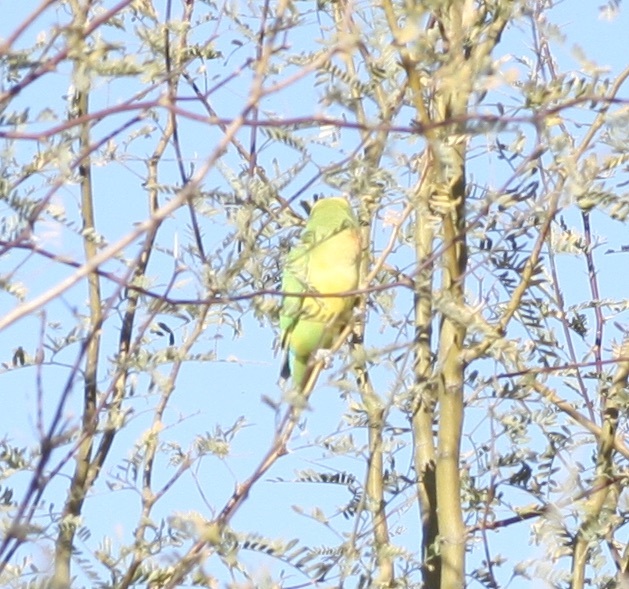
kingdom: Animalia
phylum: Chordata
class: Aves
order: Psittaciformes
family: Psittacidae
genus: Agapornis
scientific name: Agapornis roseicollis
